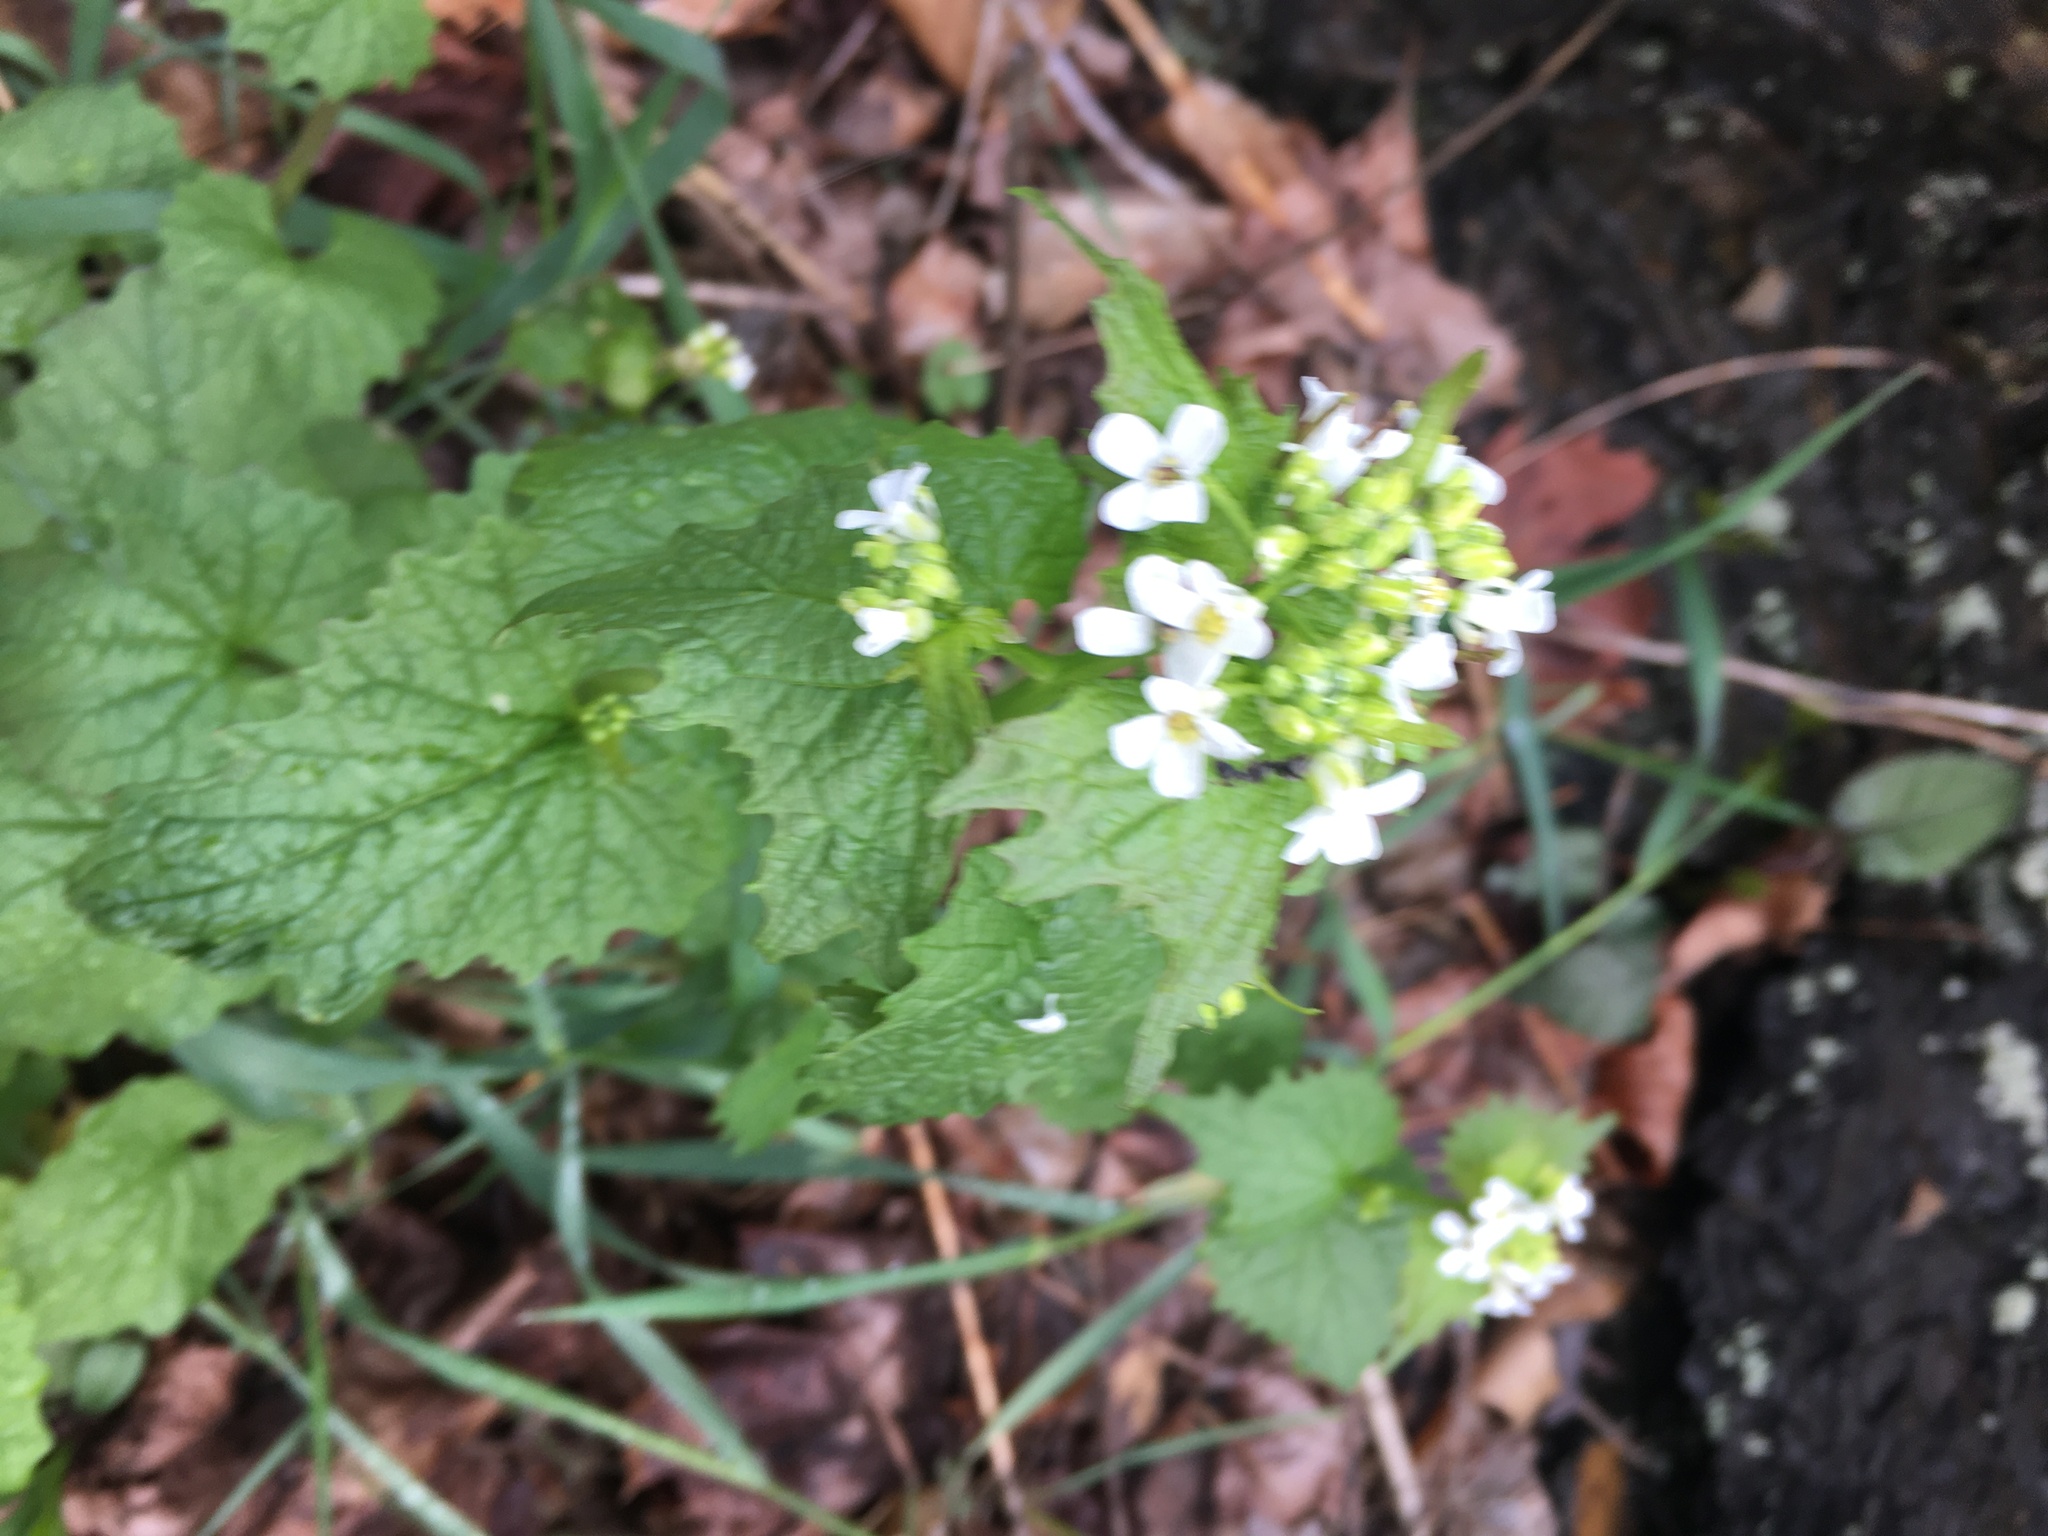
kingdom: Plantae
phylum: Tracheophyta
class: Magnoliopsida
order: Brassicales
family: Brassicaceae
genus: Alliaria
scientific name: Alliaria petiolata
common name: Garlic mustard
